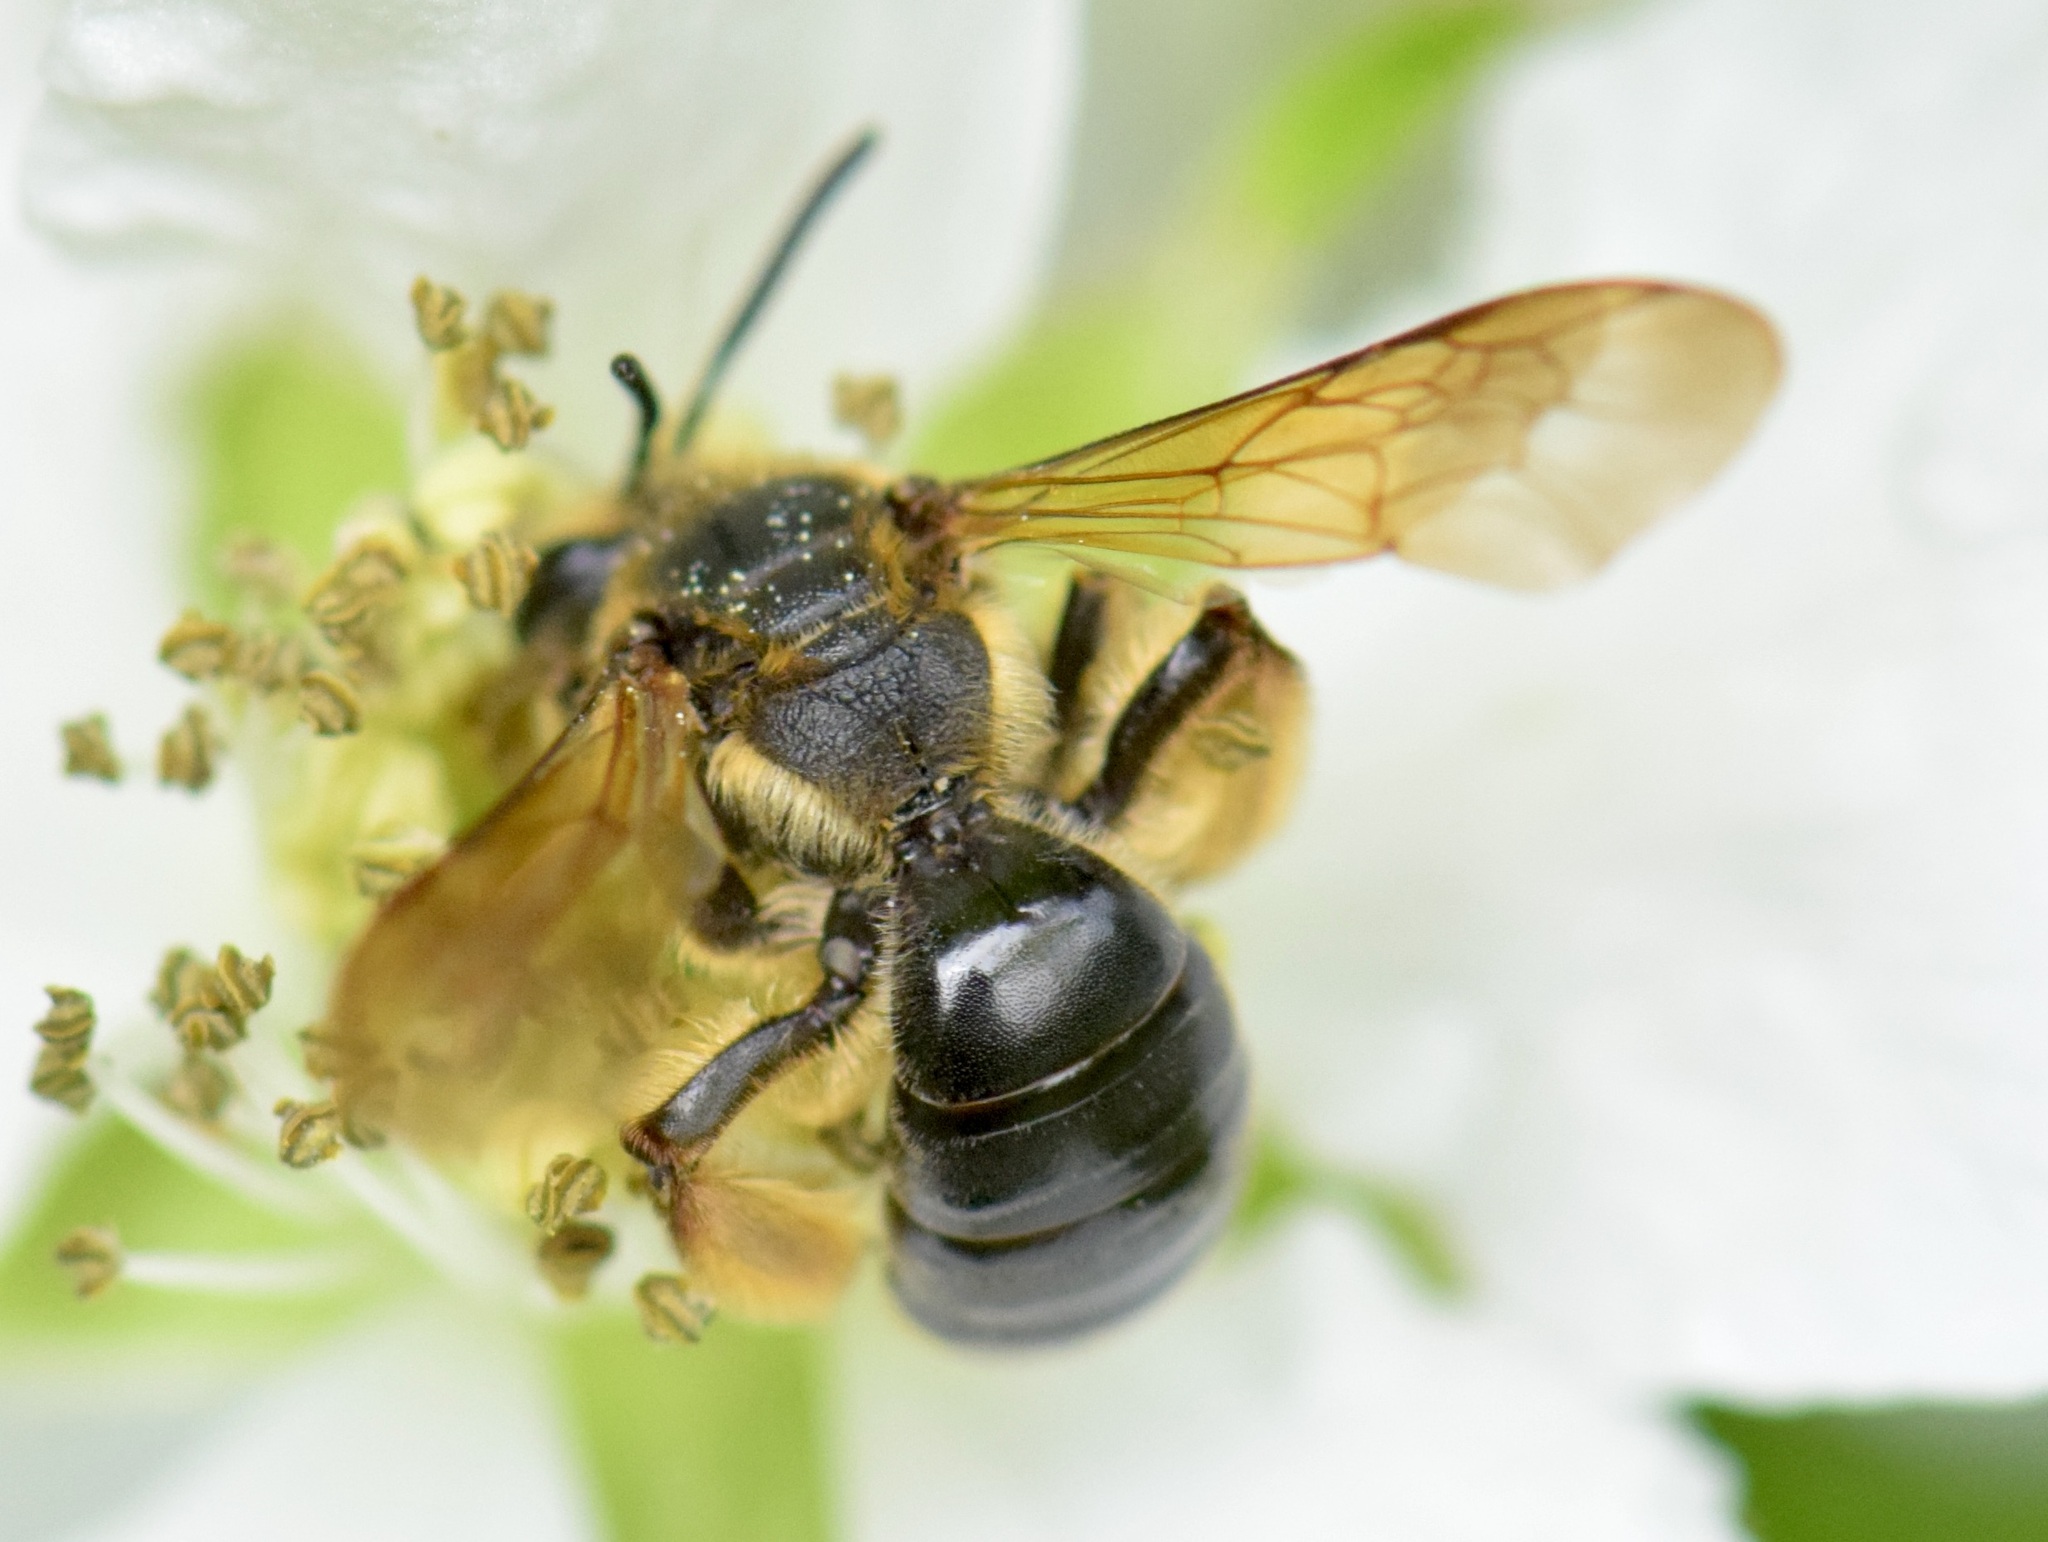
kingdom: Animalia
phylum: Arthropoda
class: Insecta
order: Hymenoptera
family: Andrenidae
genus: Andrena
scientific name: Andrena crataegi
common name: Hawthorn mining bee
